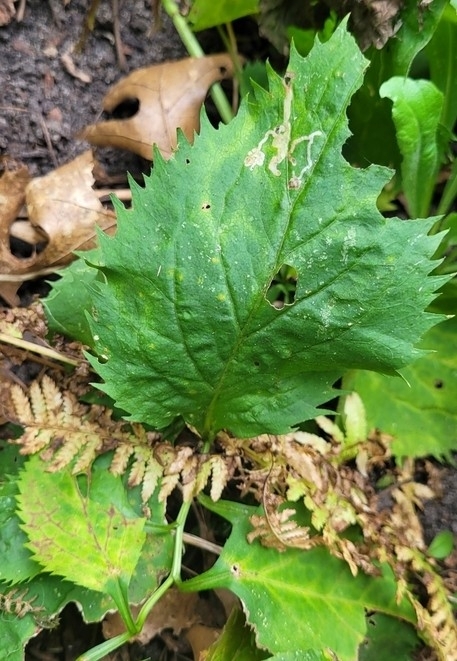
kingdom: Plantae
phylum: Tracheophyta
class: Magnoliopsida
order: Asterales
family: Asteraceae
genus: Solidago
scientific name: Solidago flexicaulis
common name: Zig-zag goldenrod
